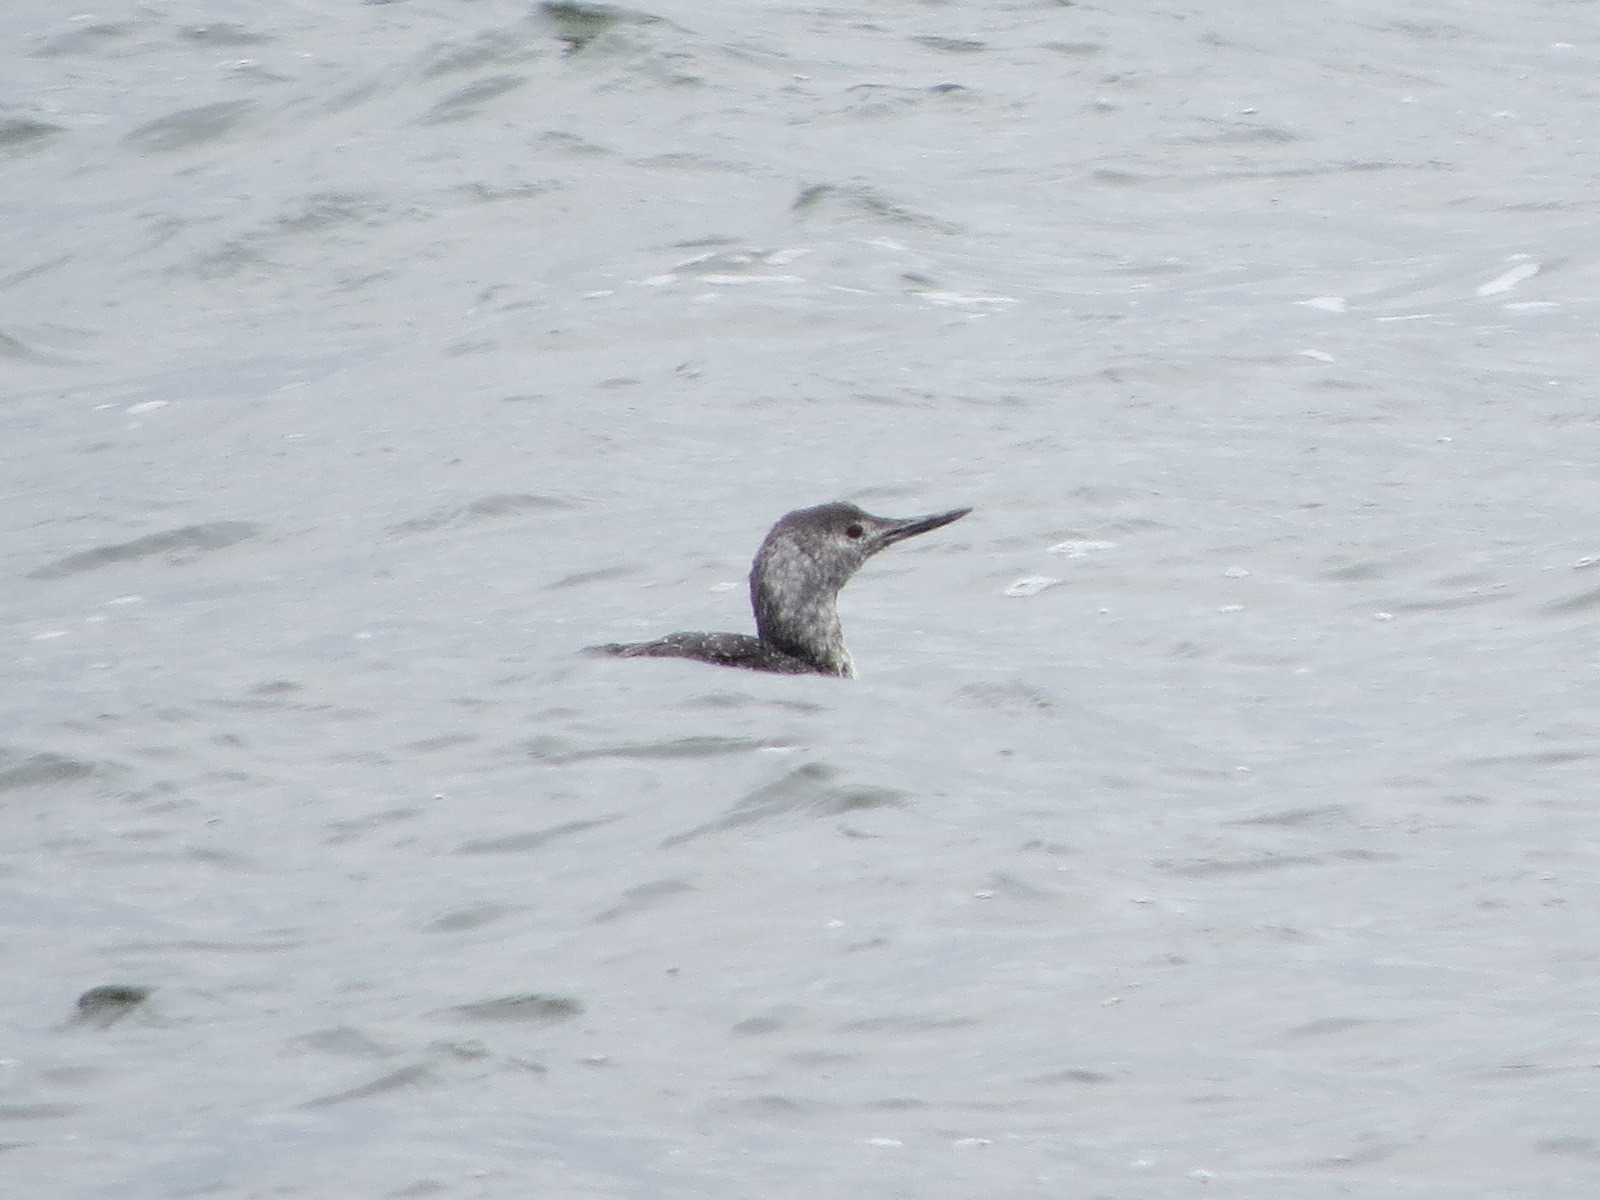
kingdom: Animalia
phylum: Chordata
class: Aves
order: Gaviiformes
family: Gaviidae
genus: Gavia
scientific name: Gavia stellata
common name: Red-throated loon
